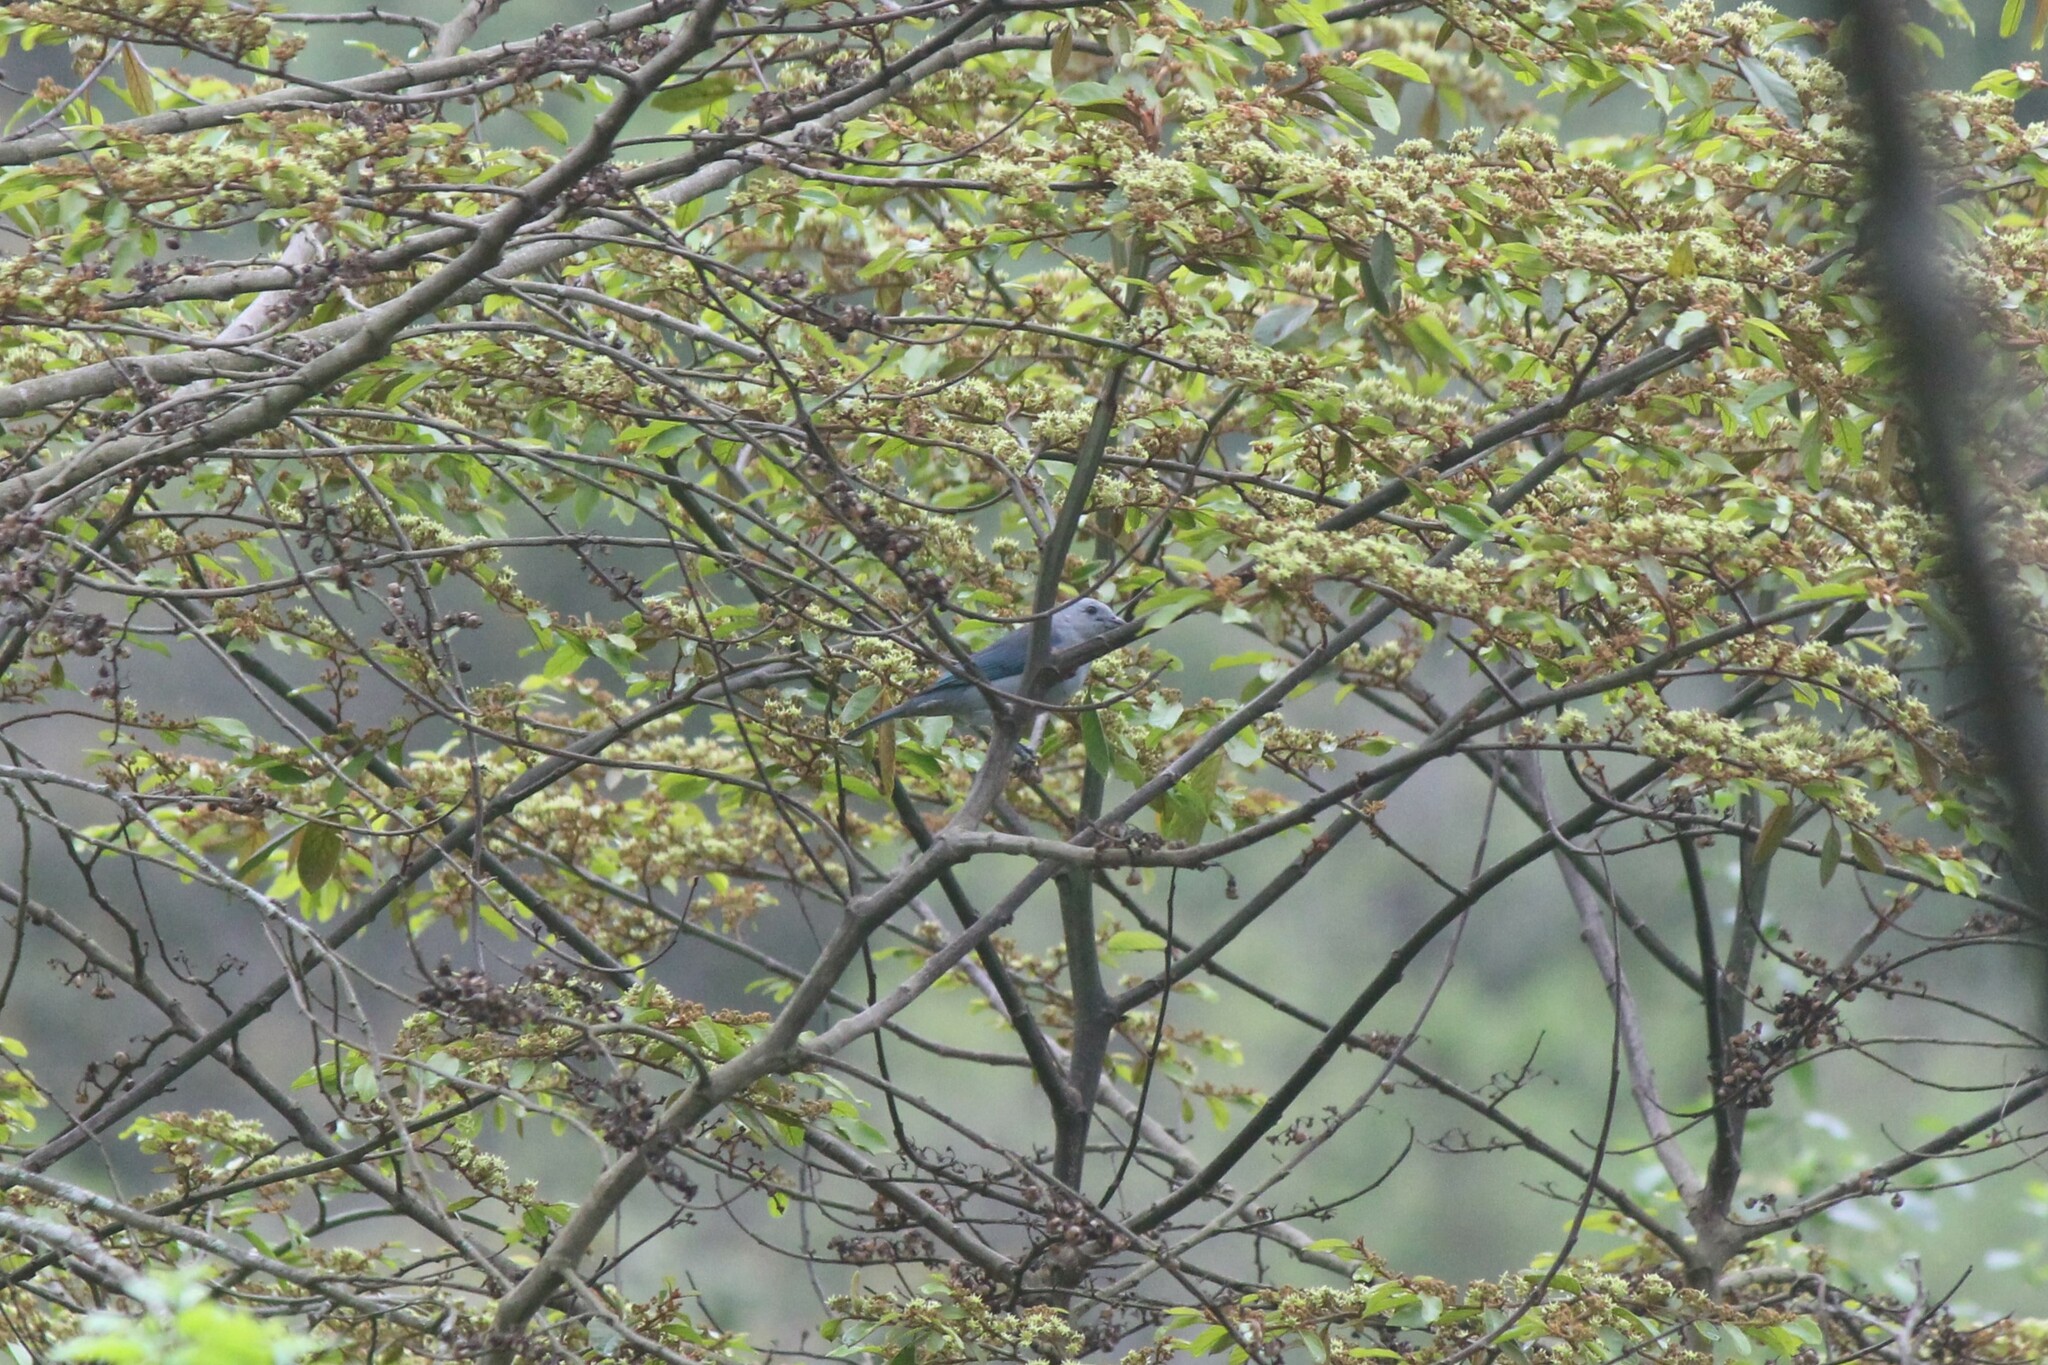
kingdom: Animalia
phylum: Chordata
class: Aves
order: Passeriformes
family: Thraupidae
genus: Thraupis
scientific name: Thraupis episcopus
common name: Blue-grey tanager
